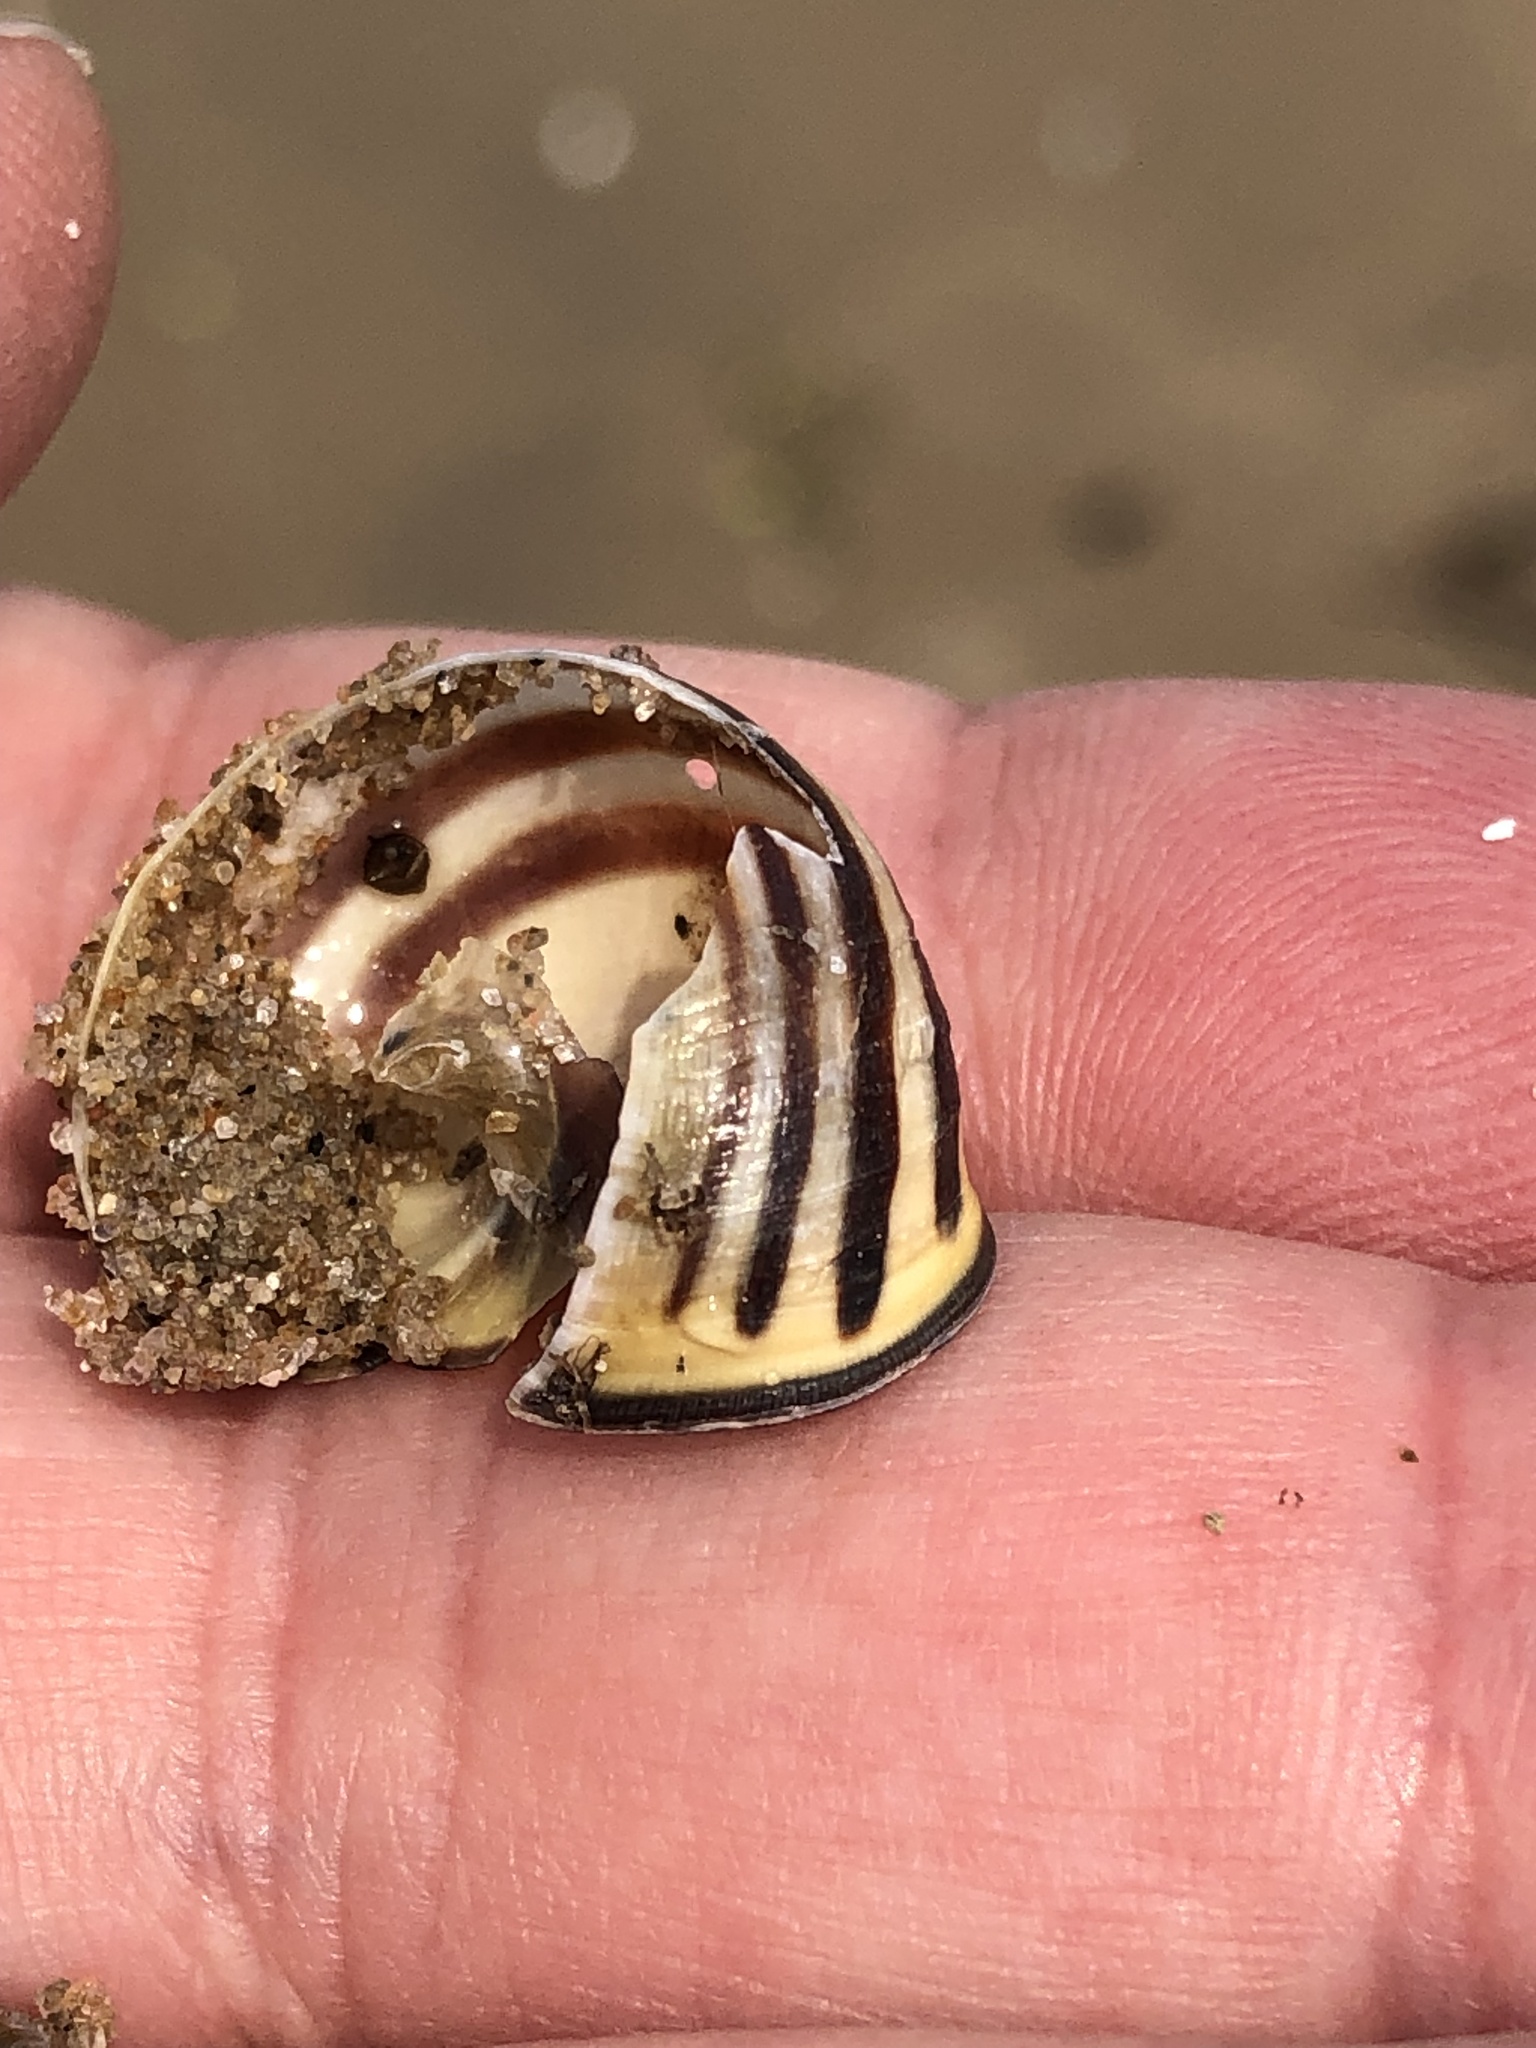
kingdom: Animalia
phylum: Mollusca
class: Gastropoda
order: Stylommatophora
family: Helicidae
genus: Cepaea
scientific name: Cepaea nemoralis
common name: Grovesnail
